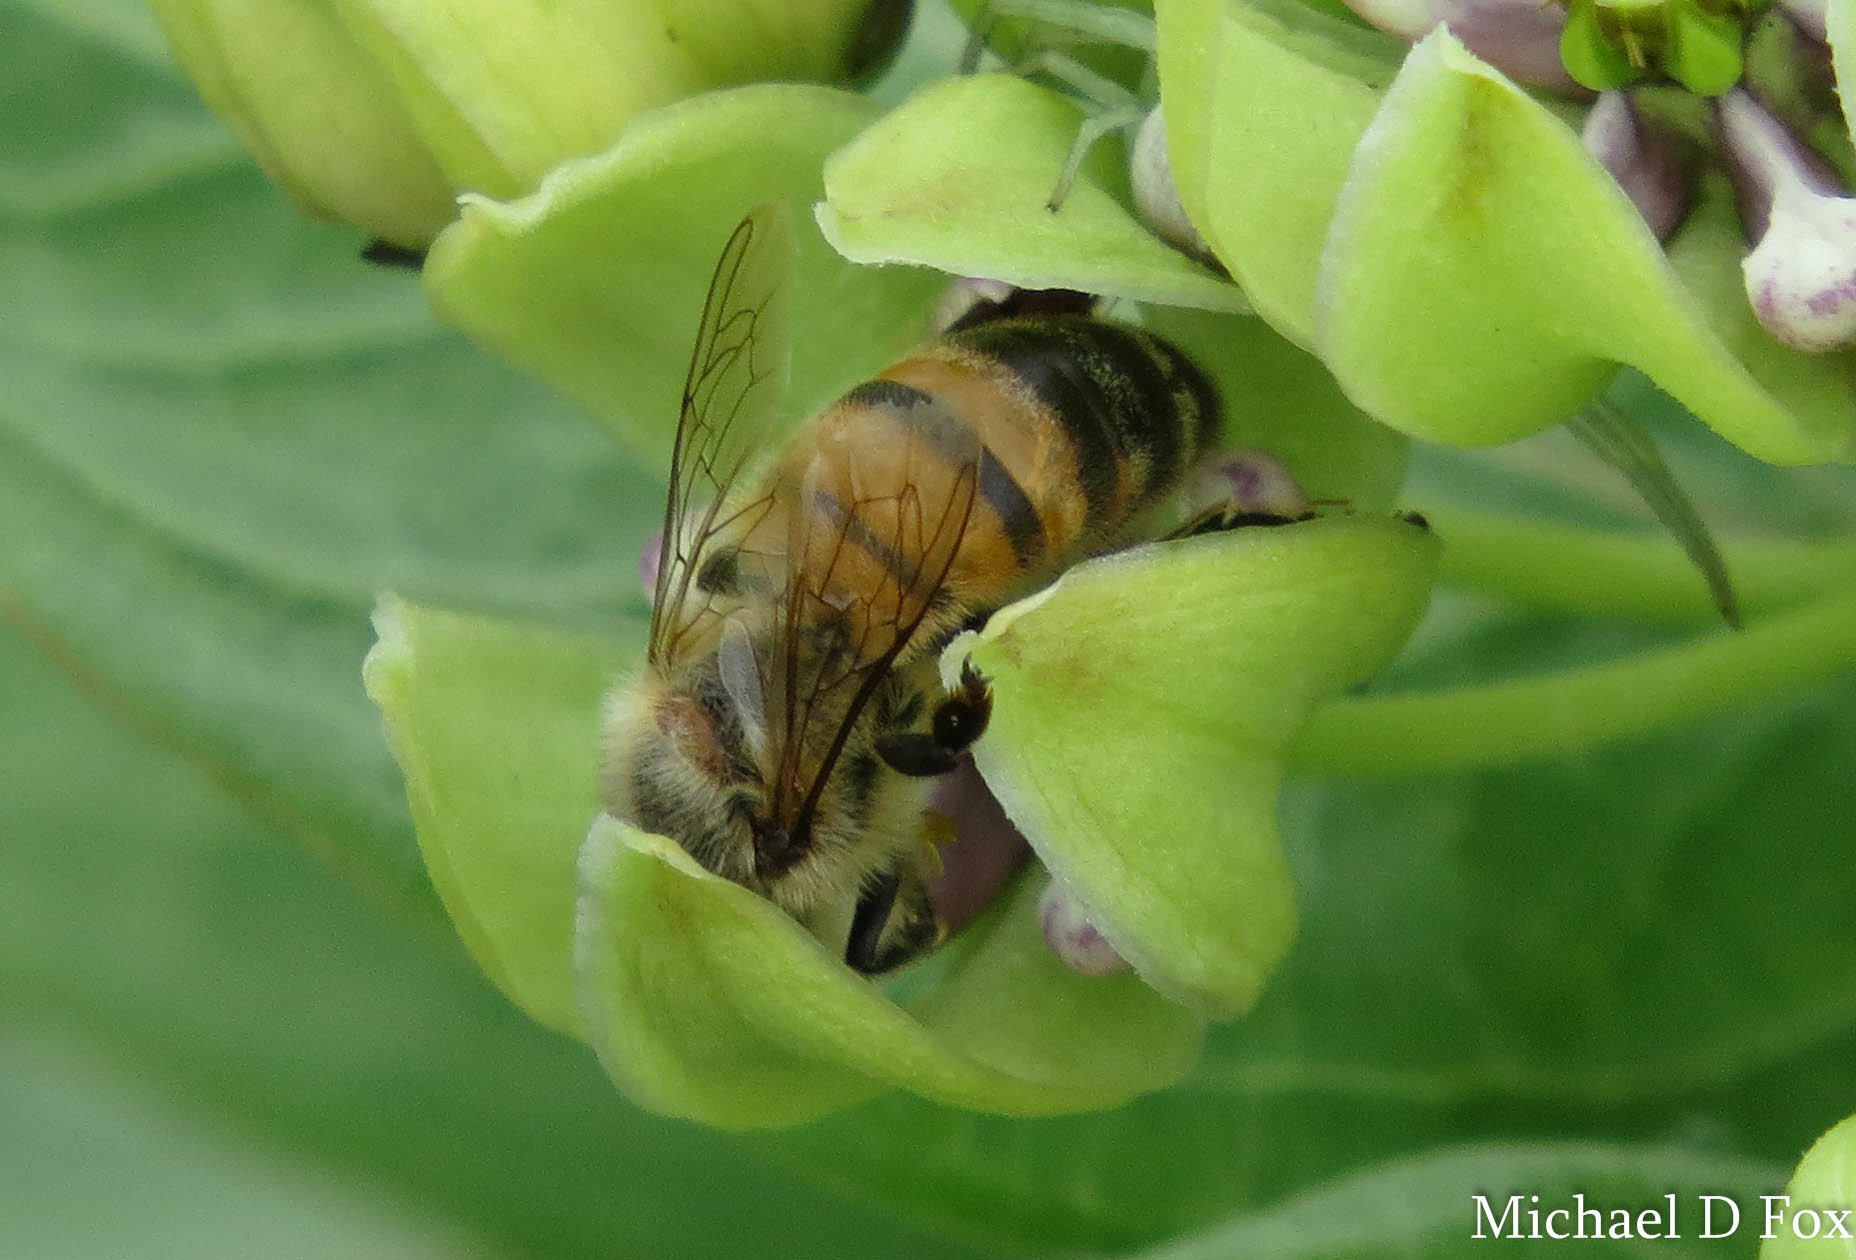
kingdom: Animalia
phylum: Arthropoda
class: Insecta
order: Hymenoptera
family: Apidae
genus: Apis
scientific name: Apis mellifera
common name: Honey bee
